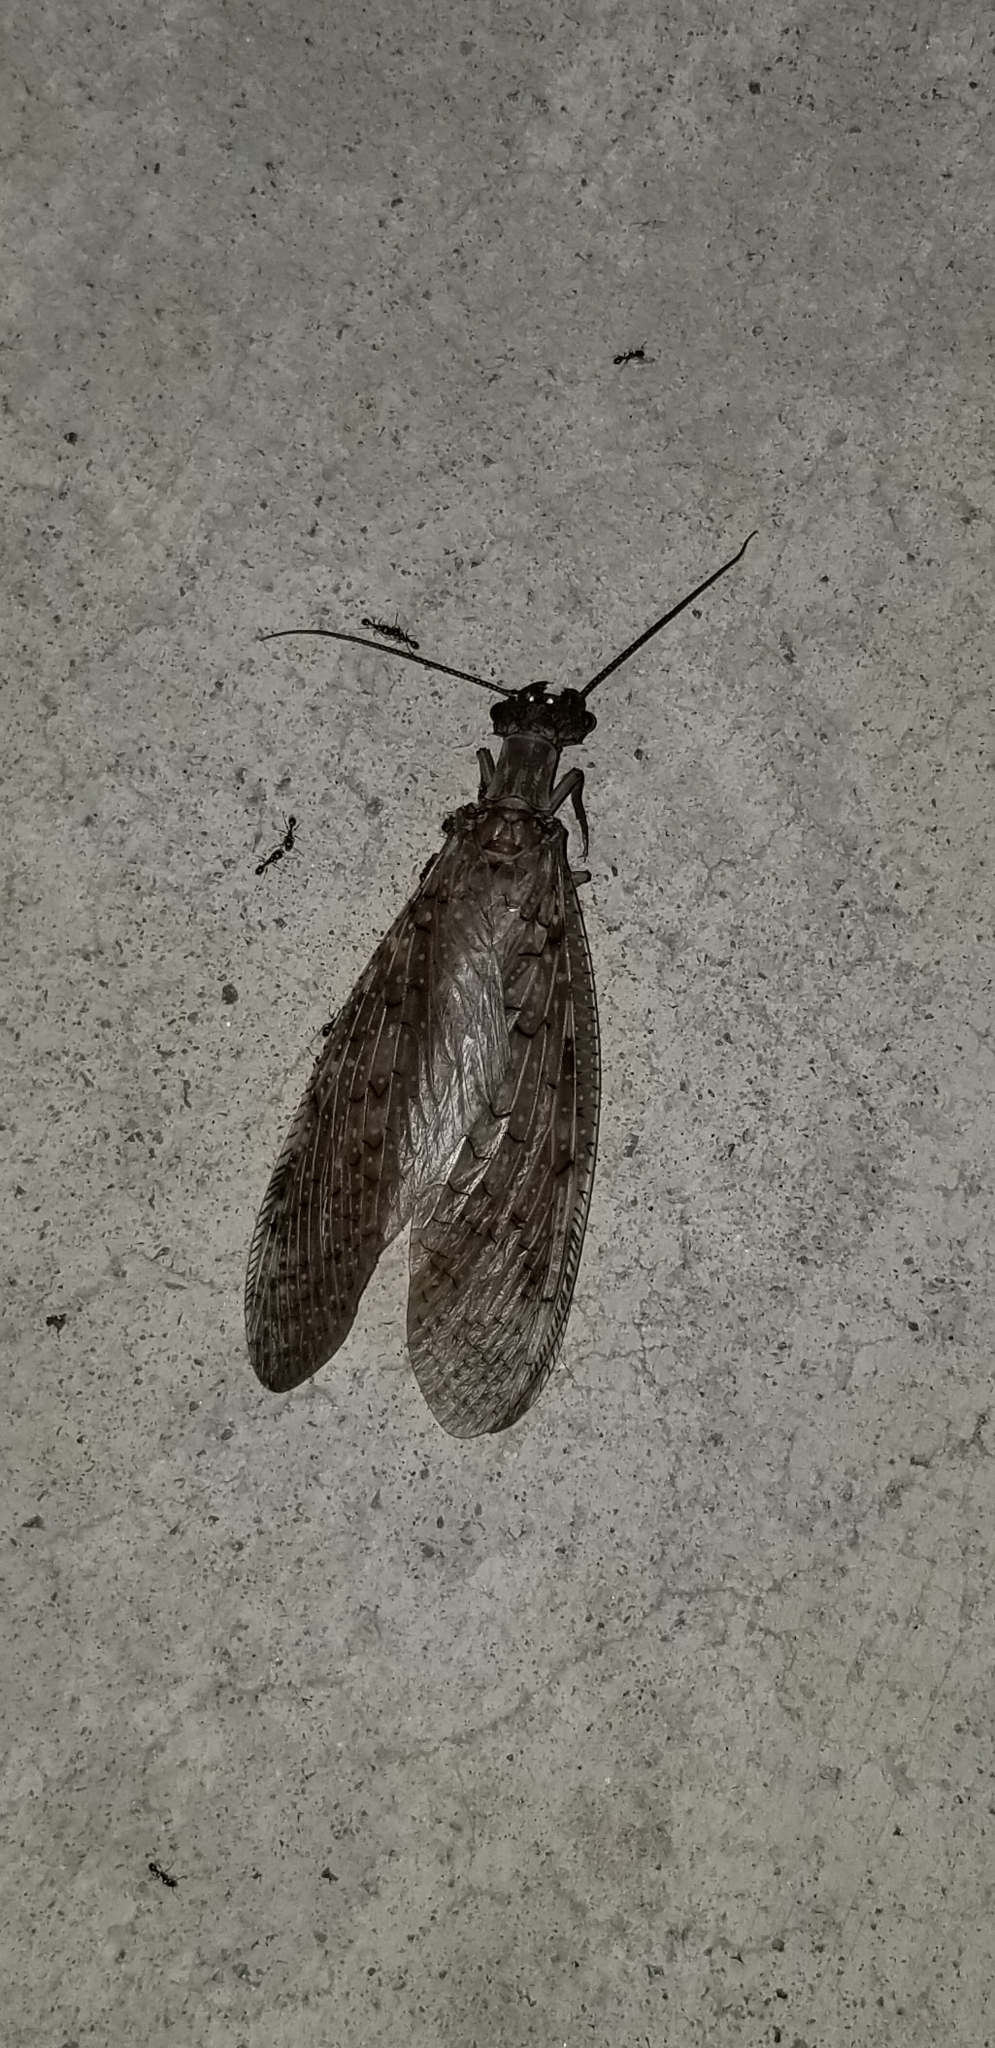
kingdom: Animalia
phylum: Arthropoda
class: Insecta
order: Megaloptera
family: Corydalidae
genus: Corydalus
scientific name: Corydalus cornutus
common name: Dobsonfly
